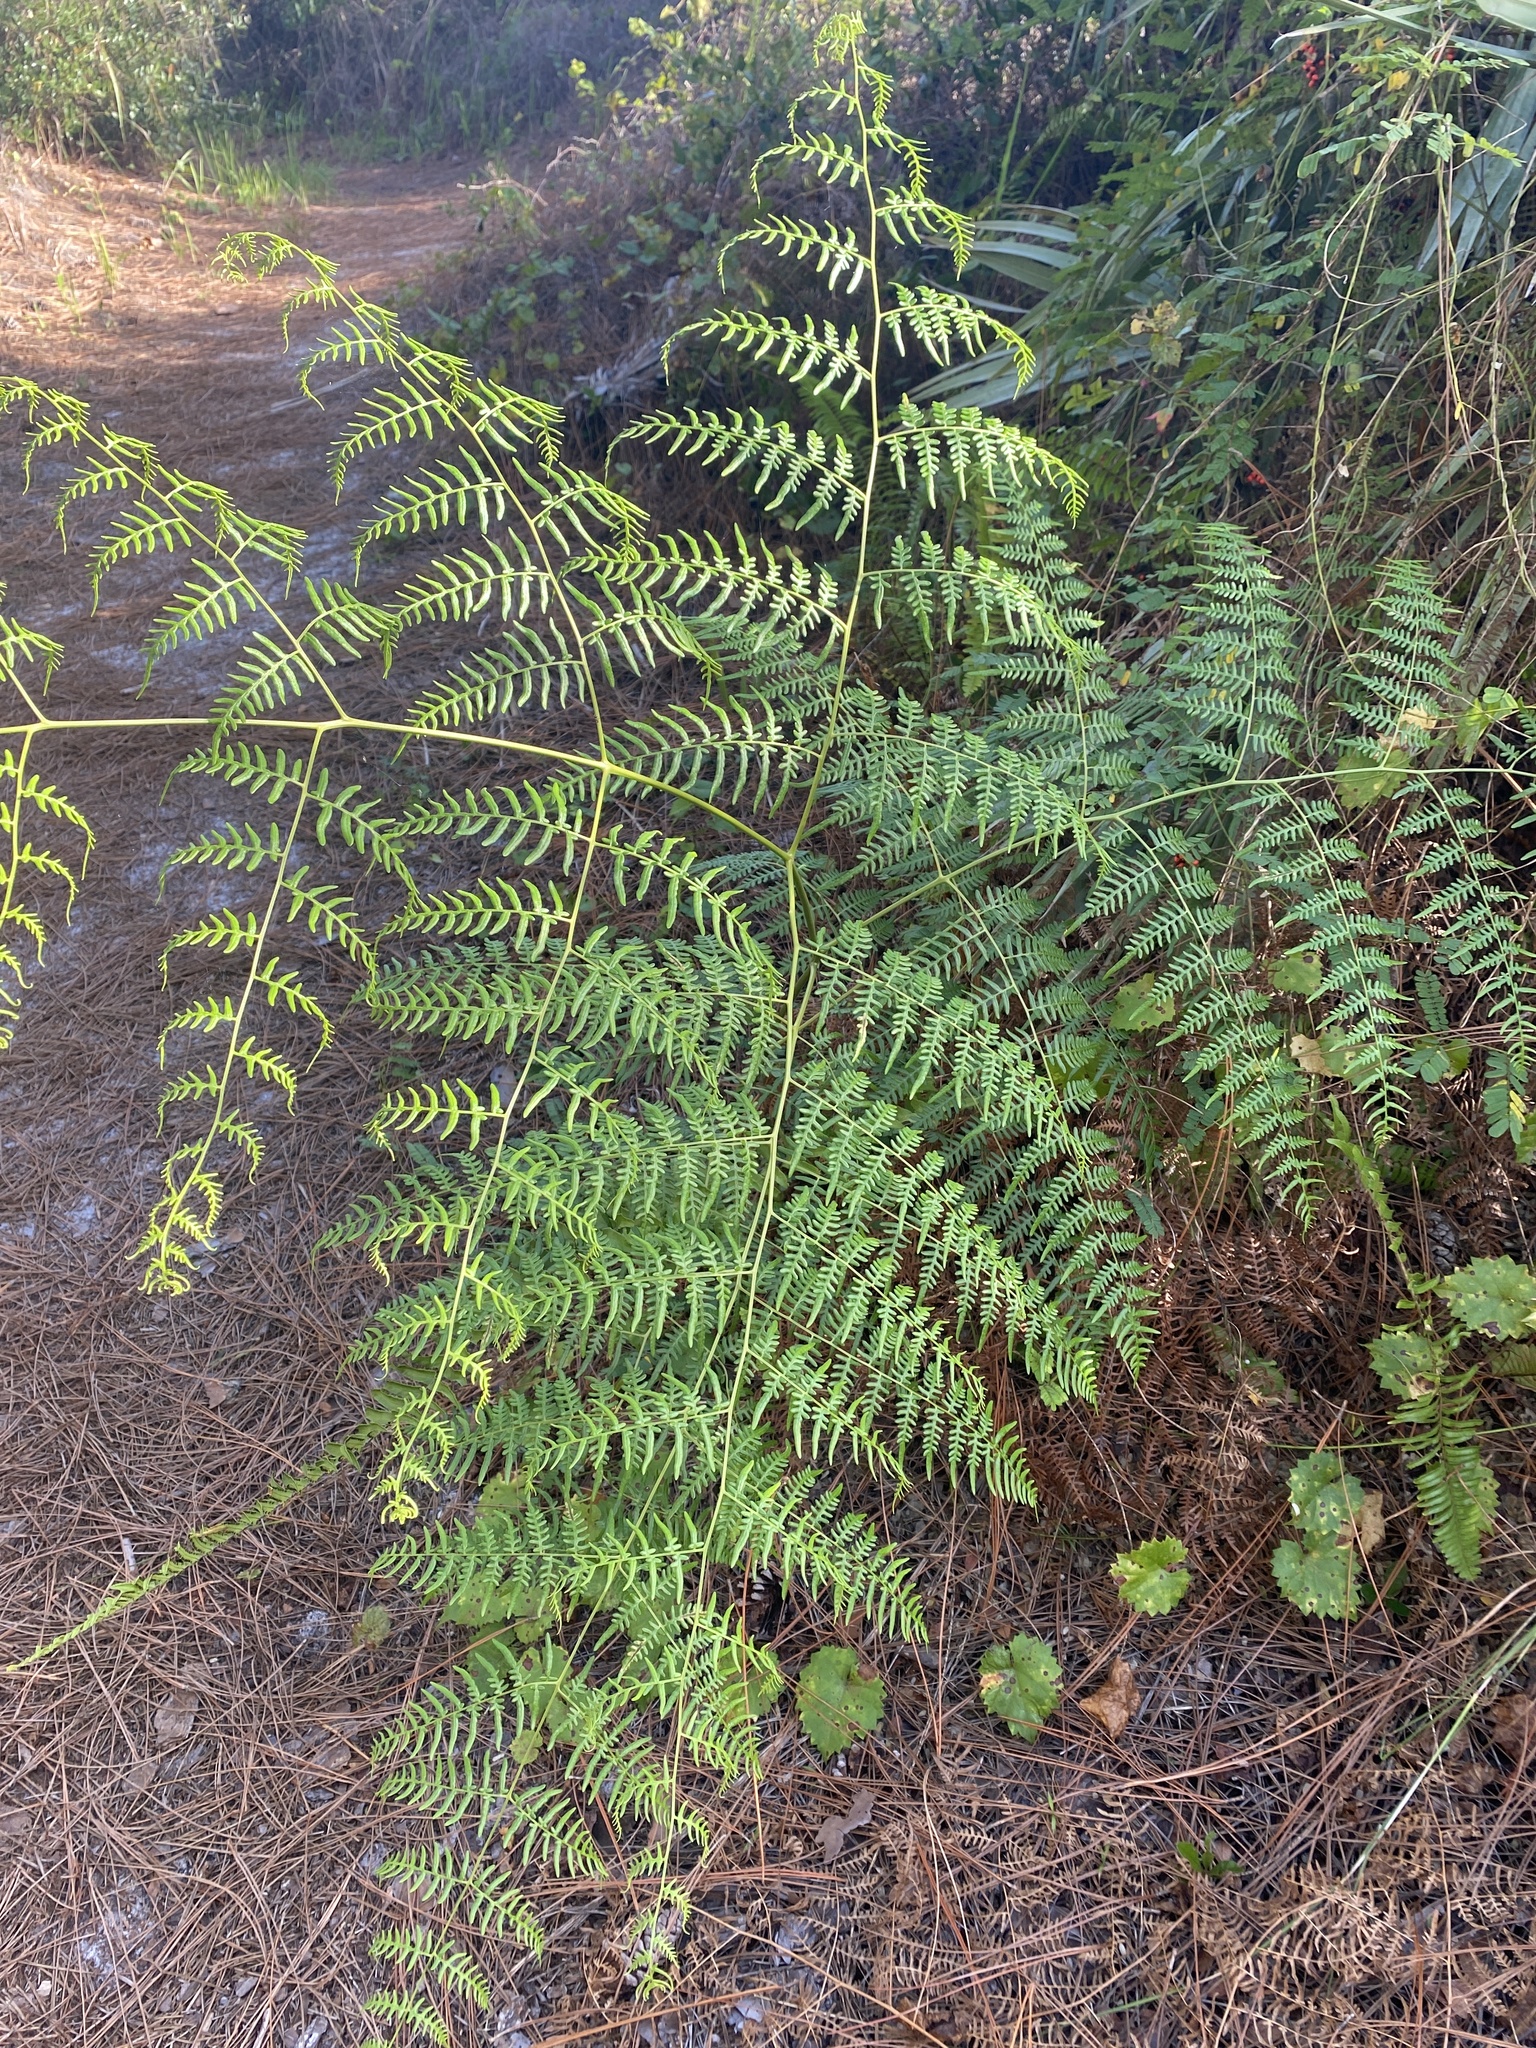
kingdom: Plantae
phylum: Tracheophyta
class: Polypodiopsida
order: Polypodiales
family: Dennstaedtiaceae
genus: Pteridium
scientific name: Pteridium caudatum
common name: Southern bracken fern
